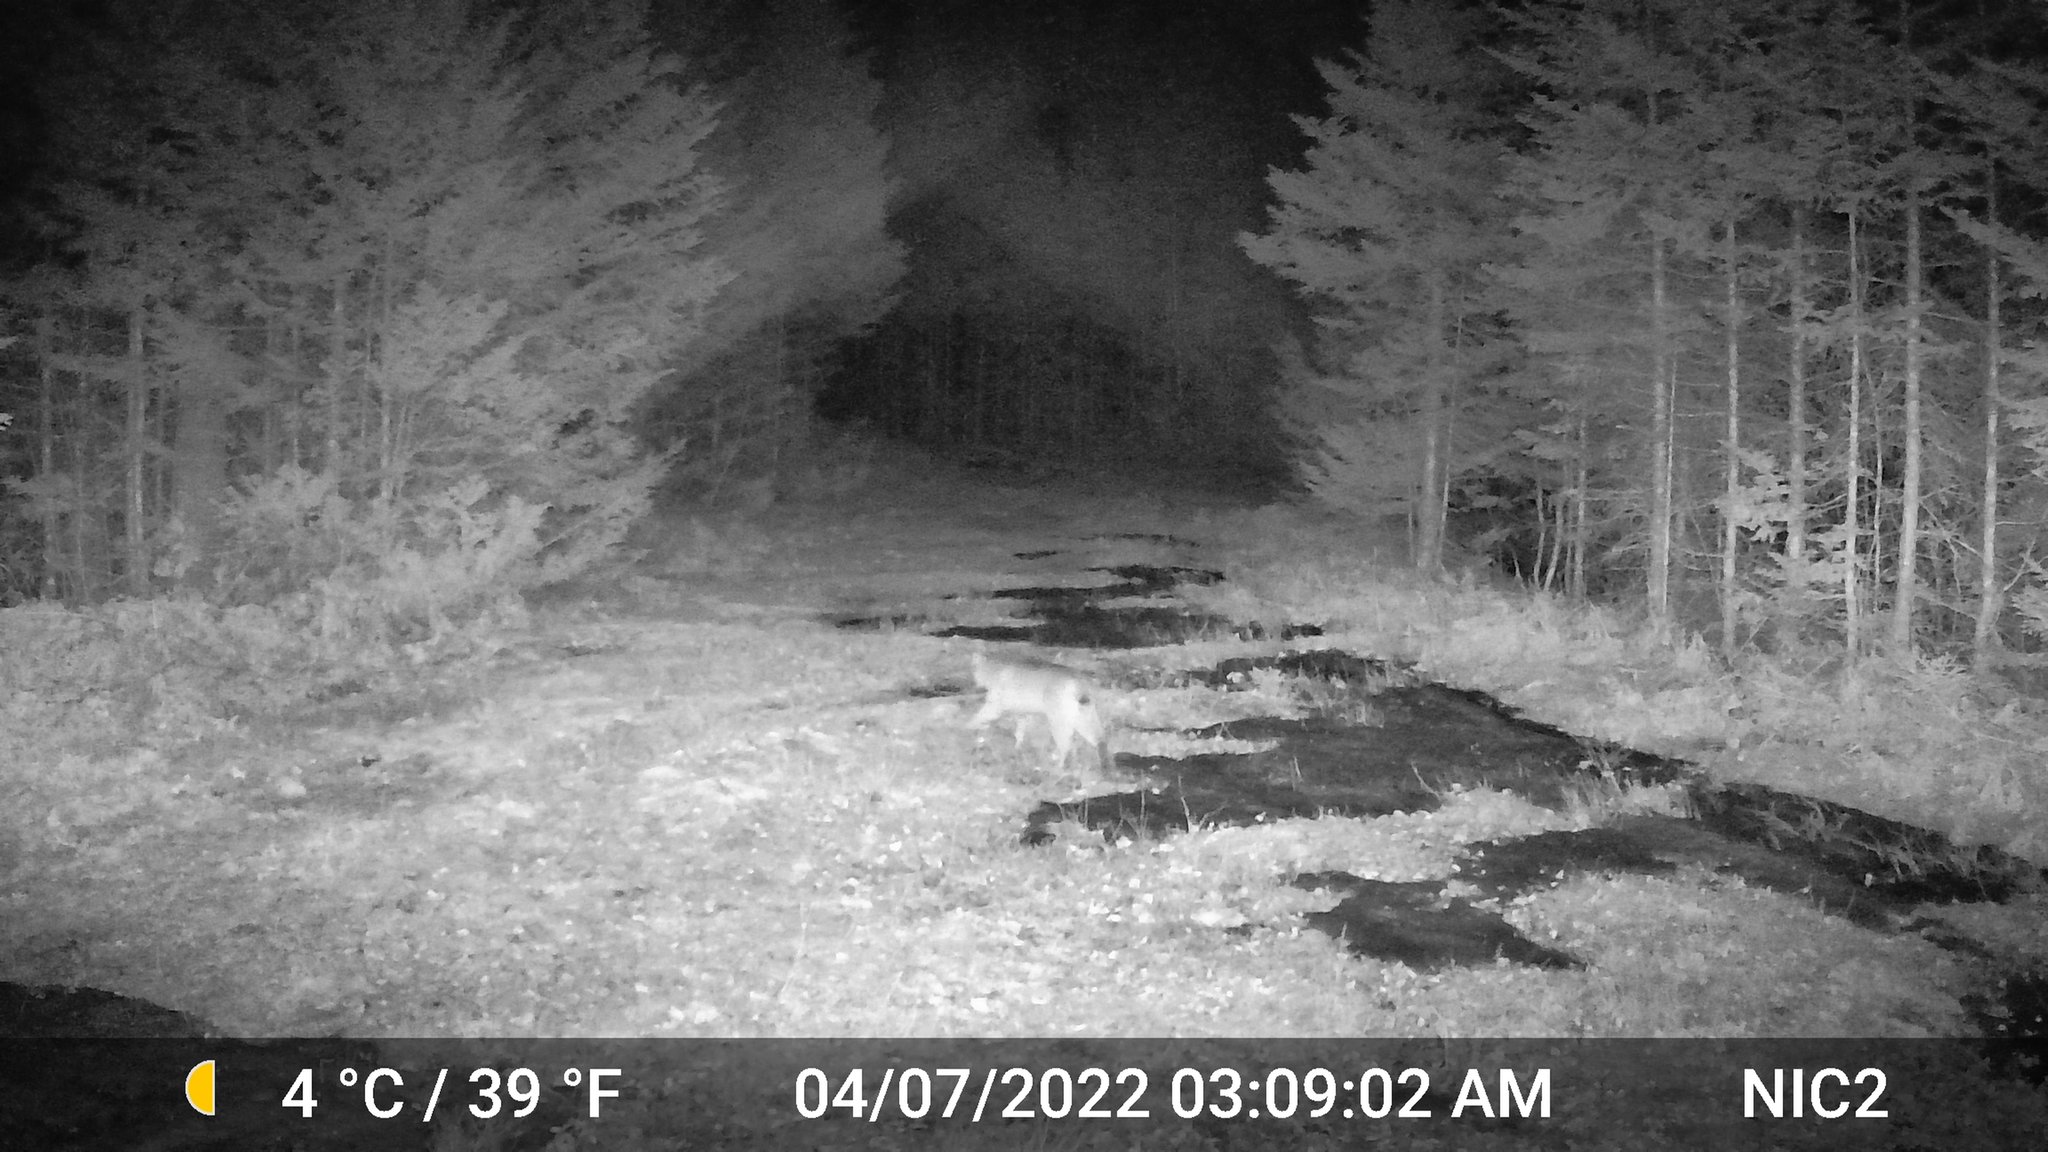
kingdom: Animalia
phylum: Chordata
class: Mammalia
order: Carnivora
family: Felidae
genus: Lynx
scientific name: Lynx rufus
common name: Bobcat
